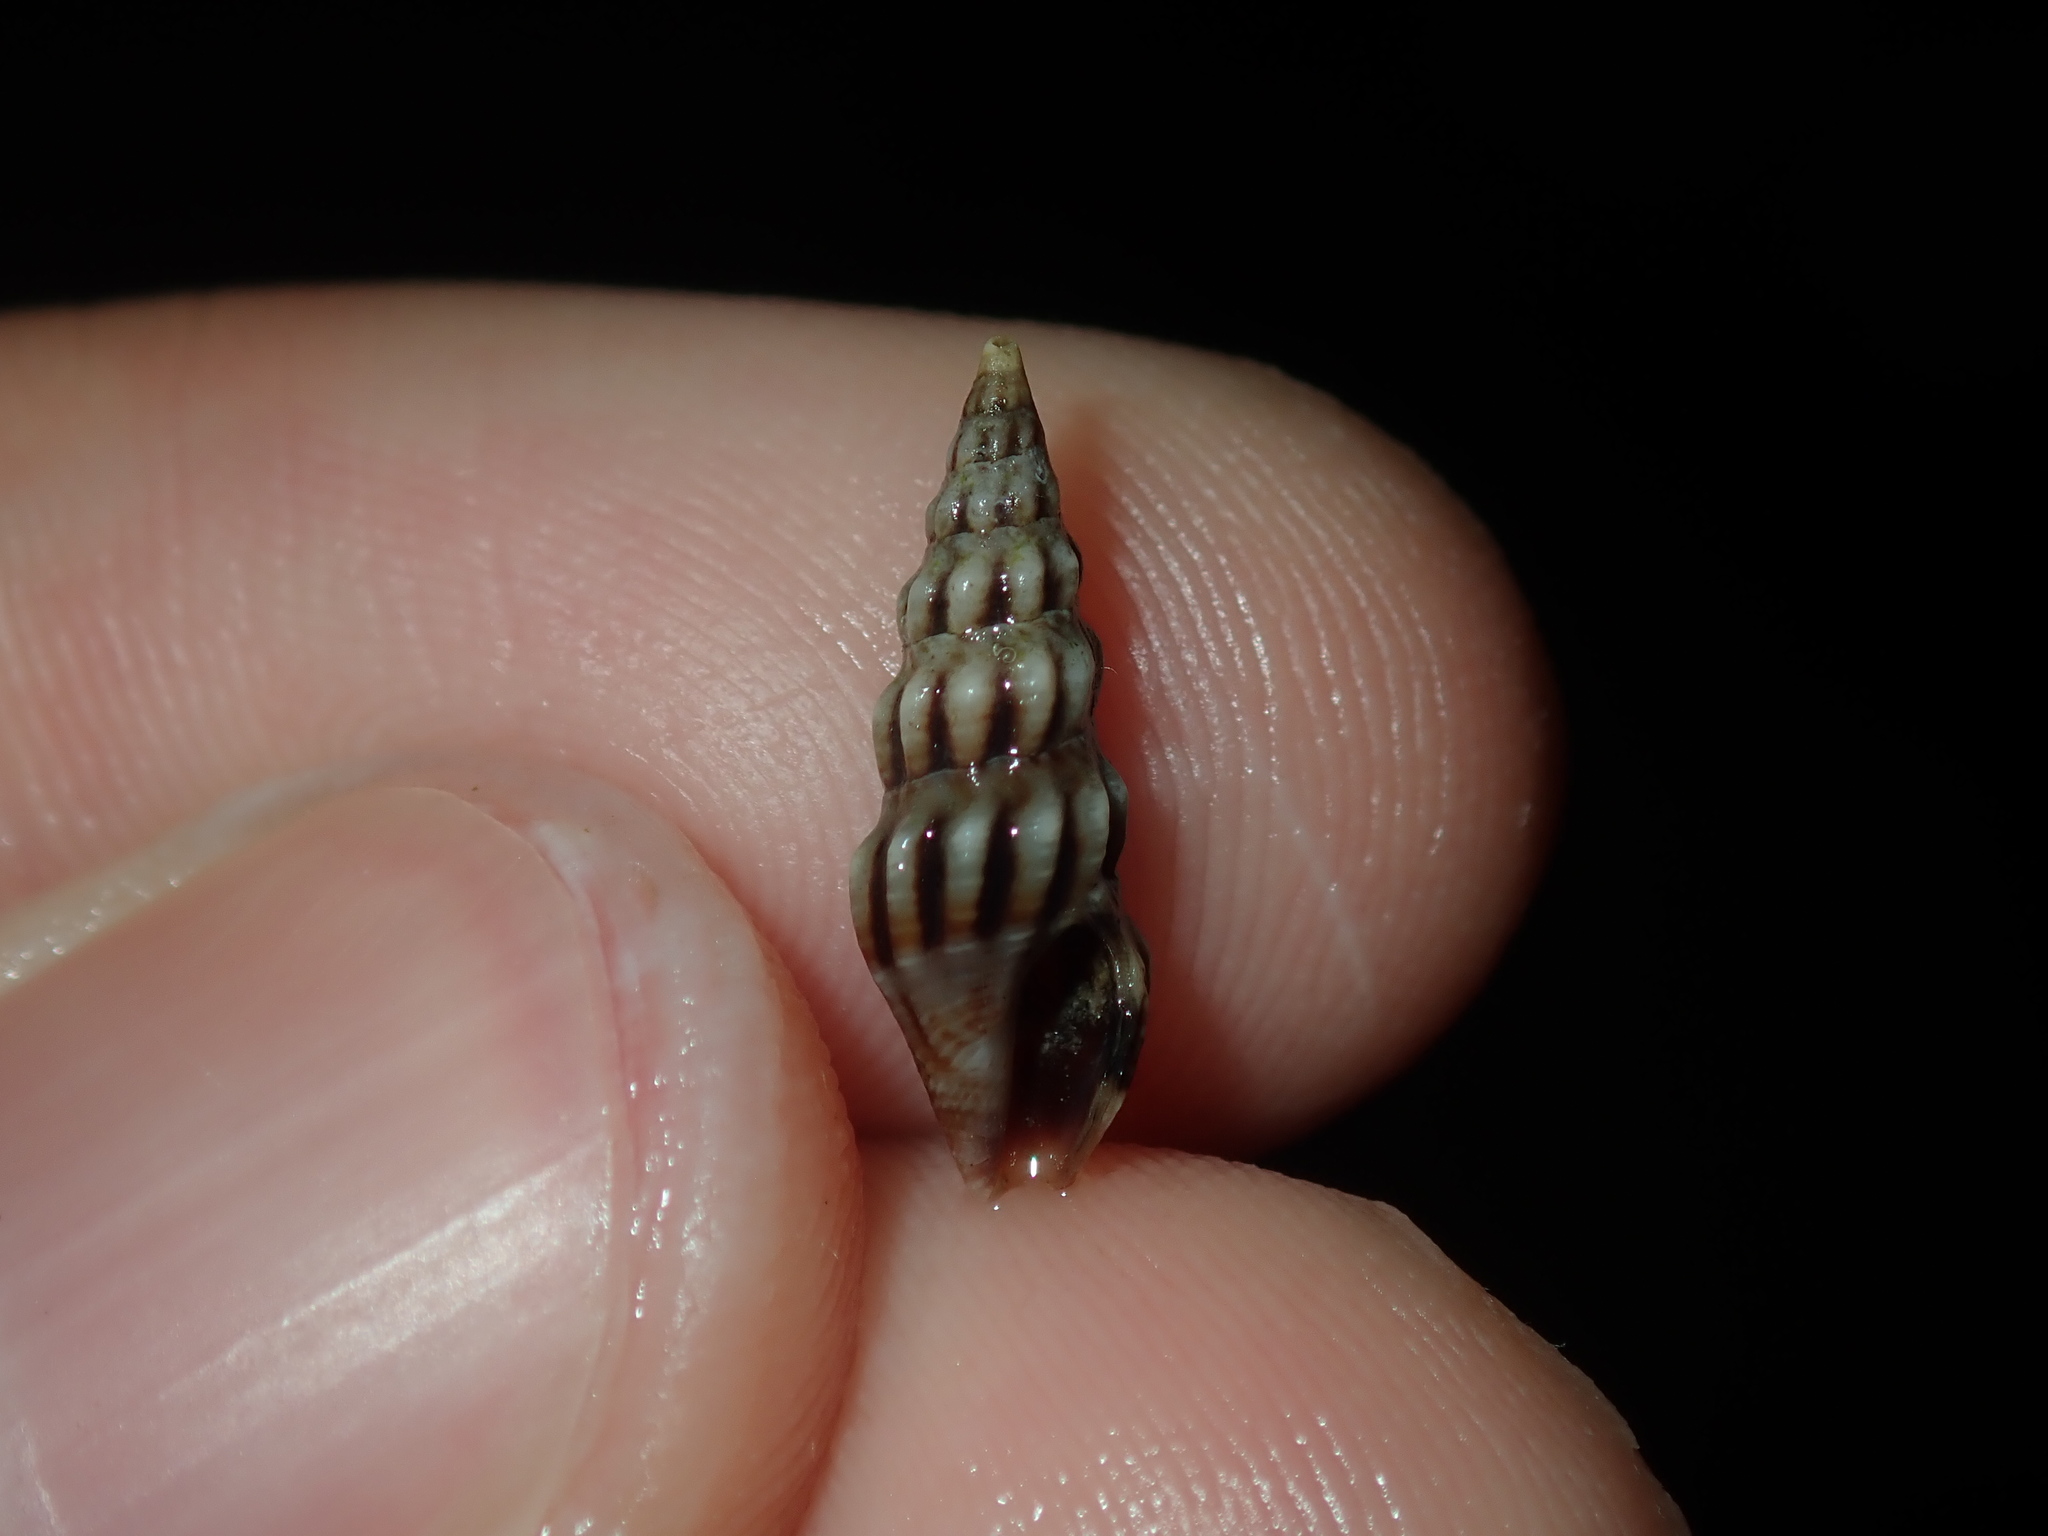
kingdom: Animalia
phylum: Mollusca
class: Gastropoda
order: Neogastropoda
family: Horaiclavidae
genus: Austrodrillia
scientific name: Austrodrillia angasi
